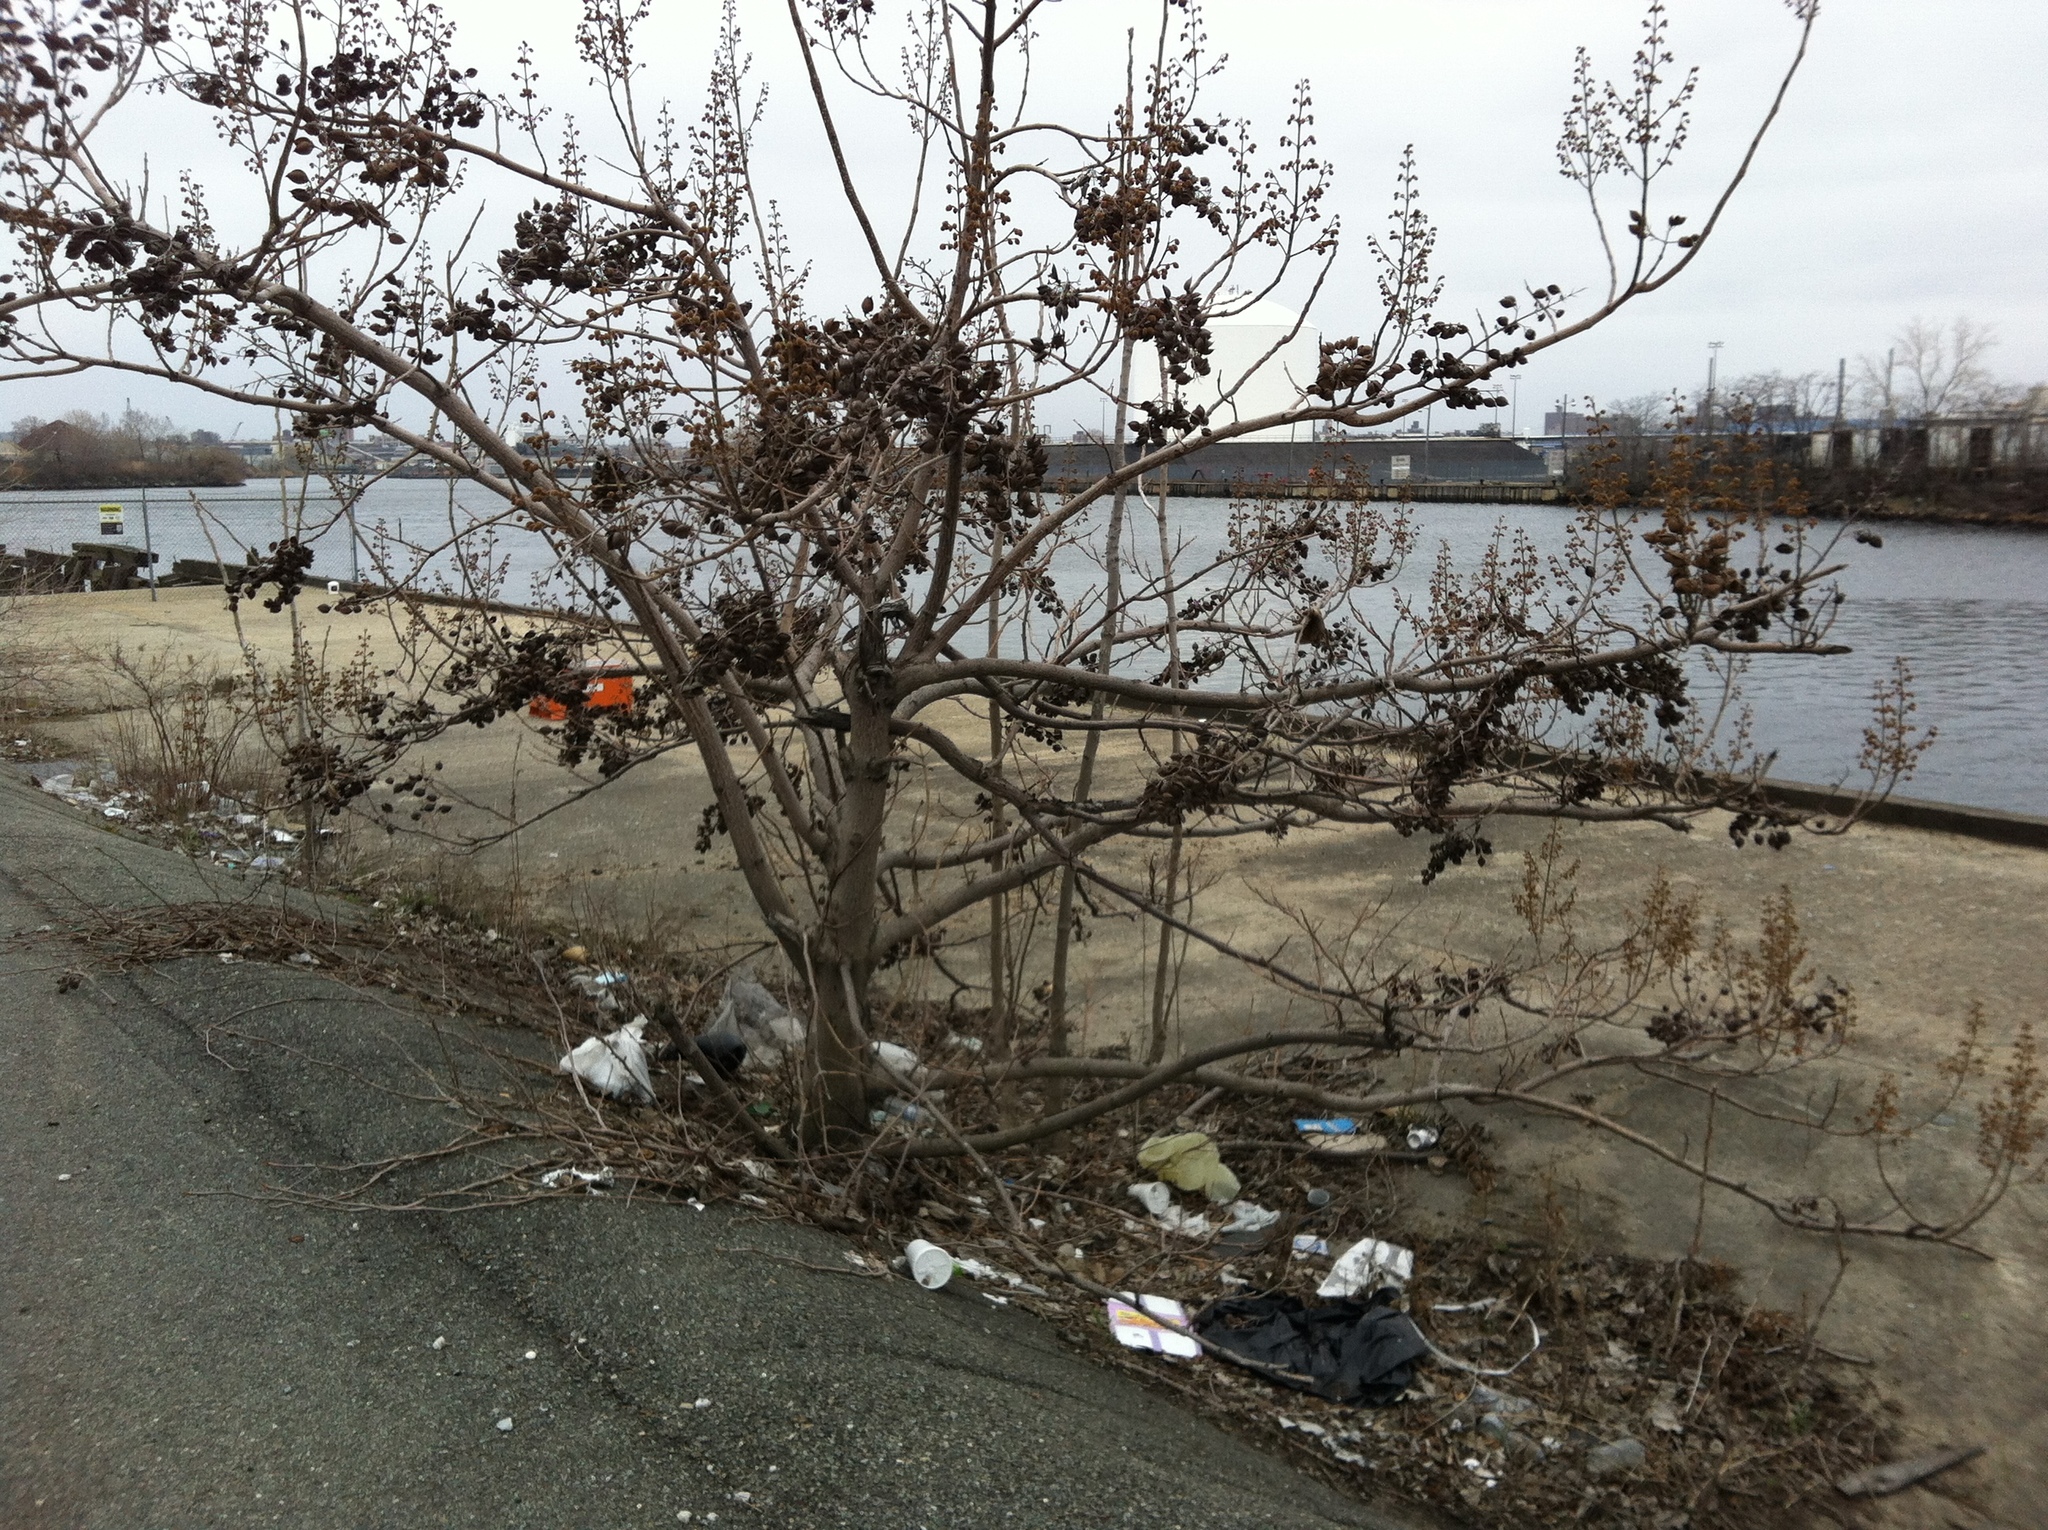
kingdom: Plantae
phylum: Tracheophyta
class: Magnoliopsida
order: Lamiales
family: Paulowniaceae
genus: Paulownia
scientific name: Paulownia tomentosa
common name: Foxglove-tree
